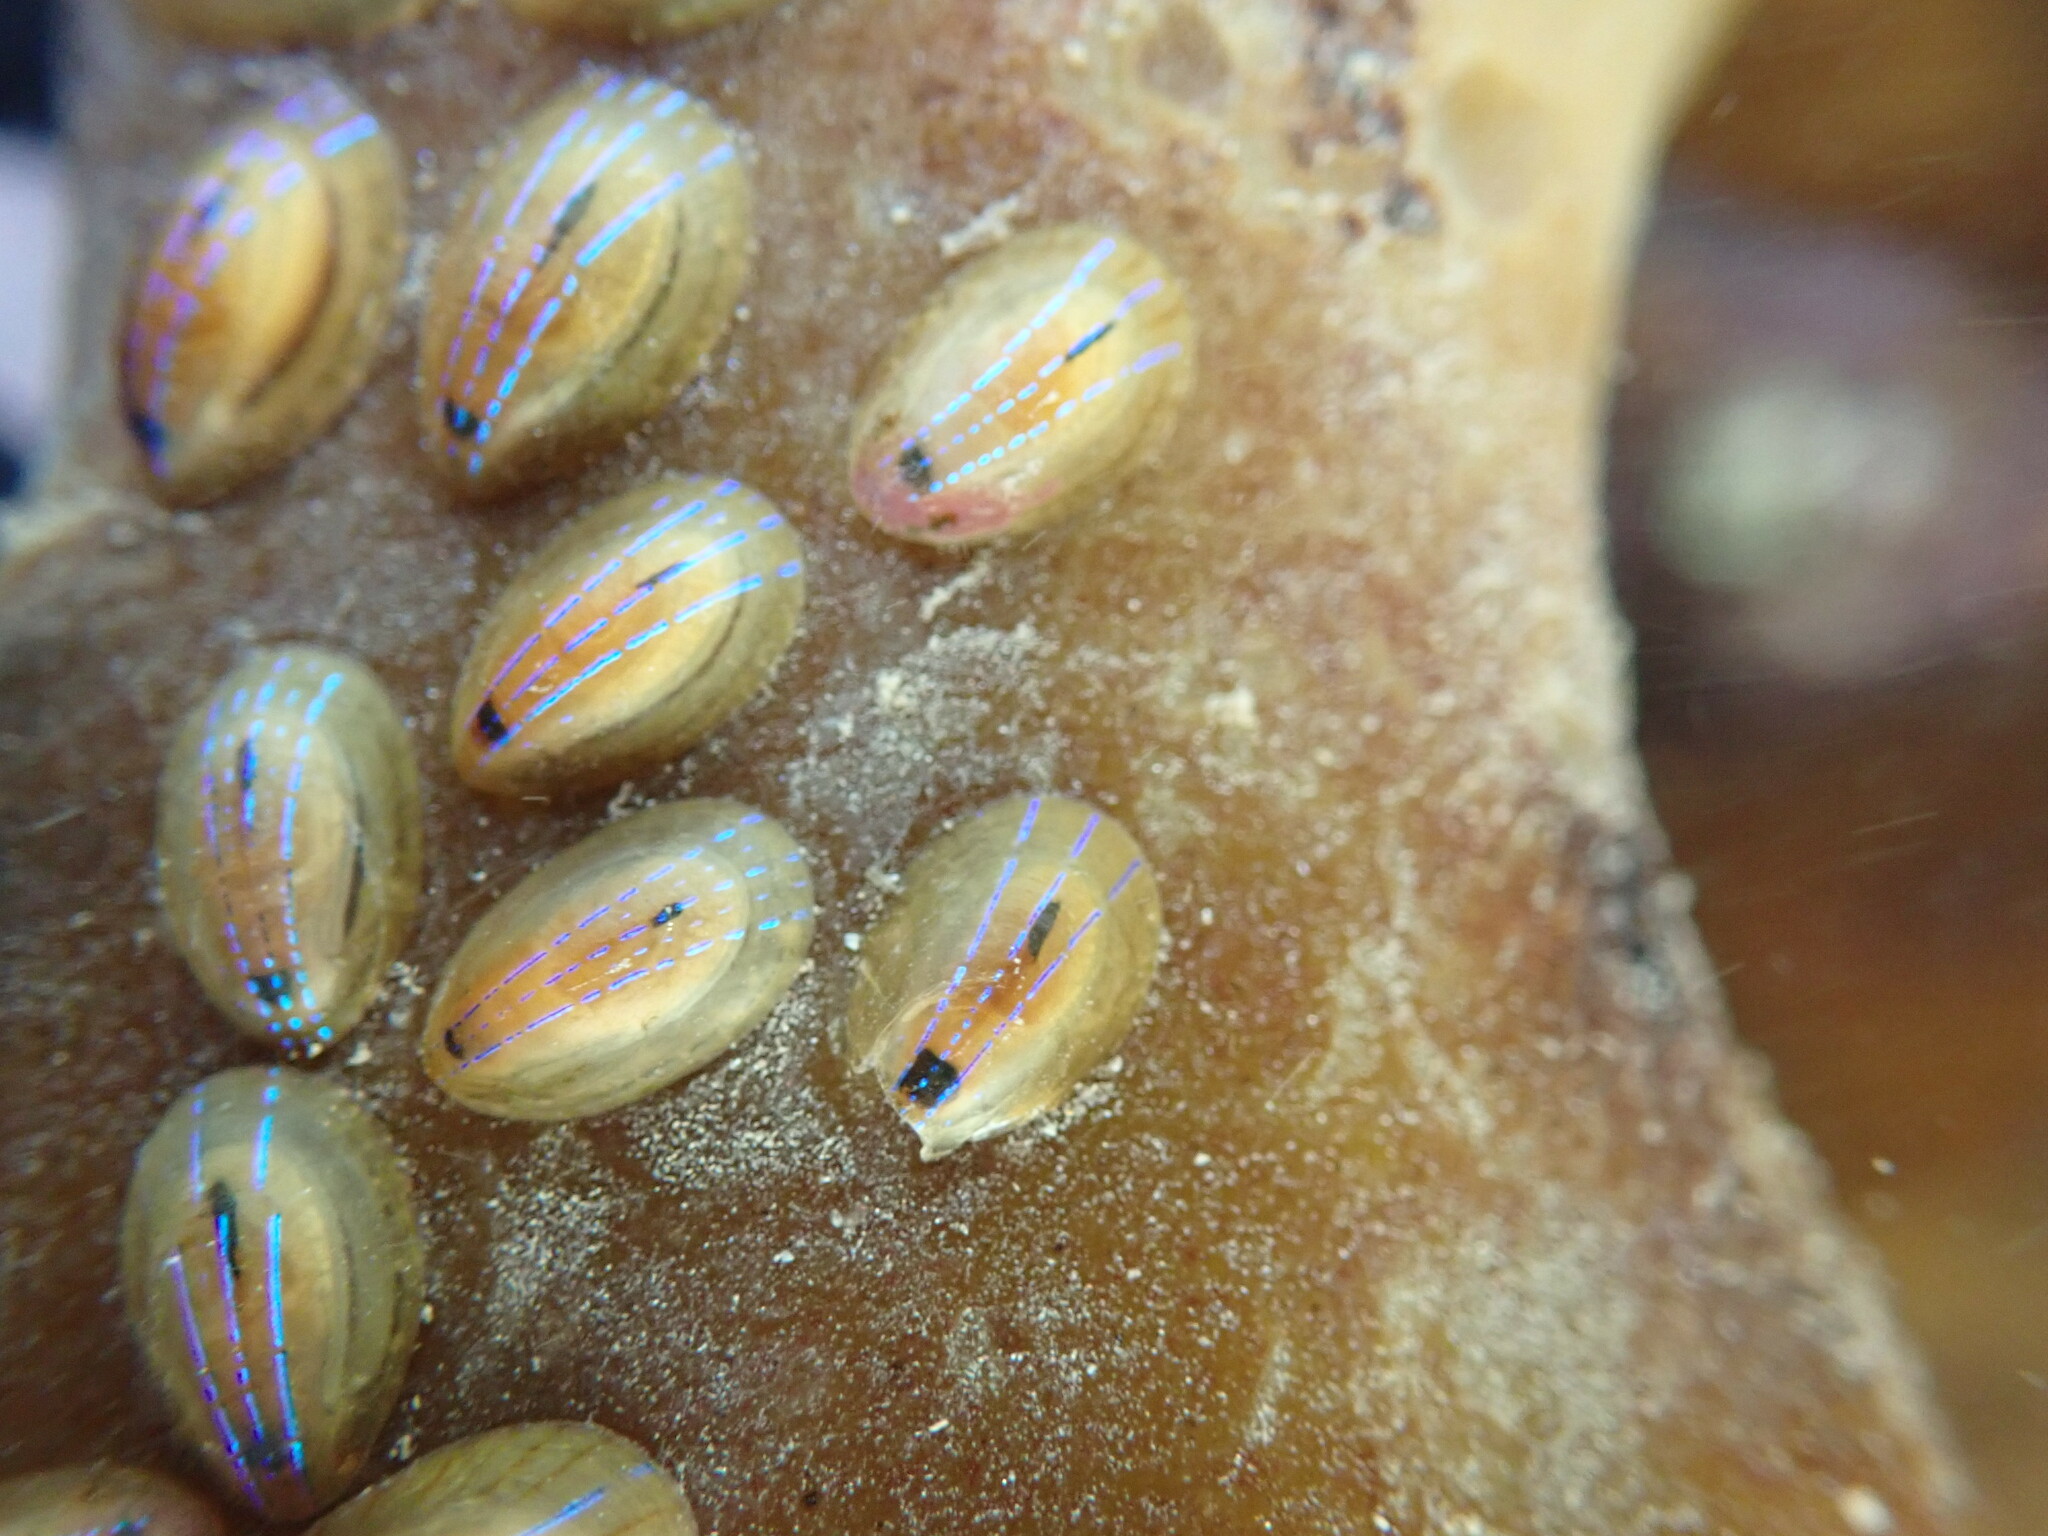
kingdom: Animalia
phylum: Mollusca
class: Gastropoda
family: Patellidae
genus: Patella
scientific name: Patella pellucida
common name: Blue-rayed limpet
